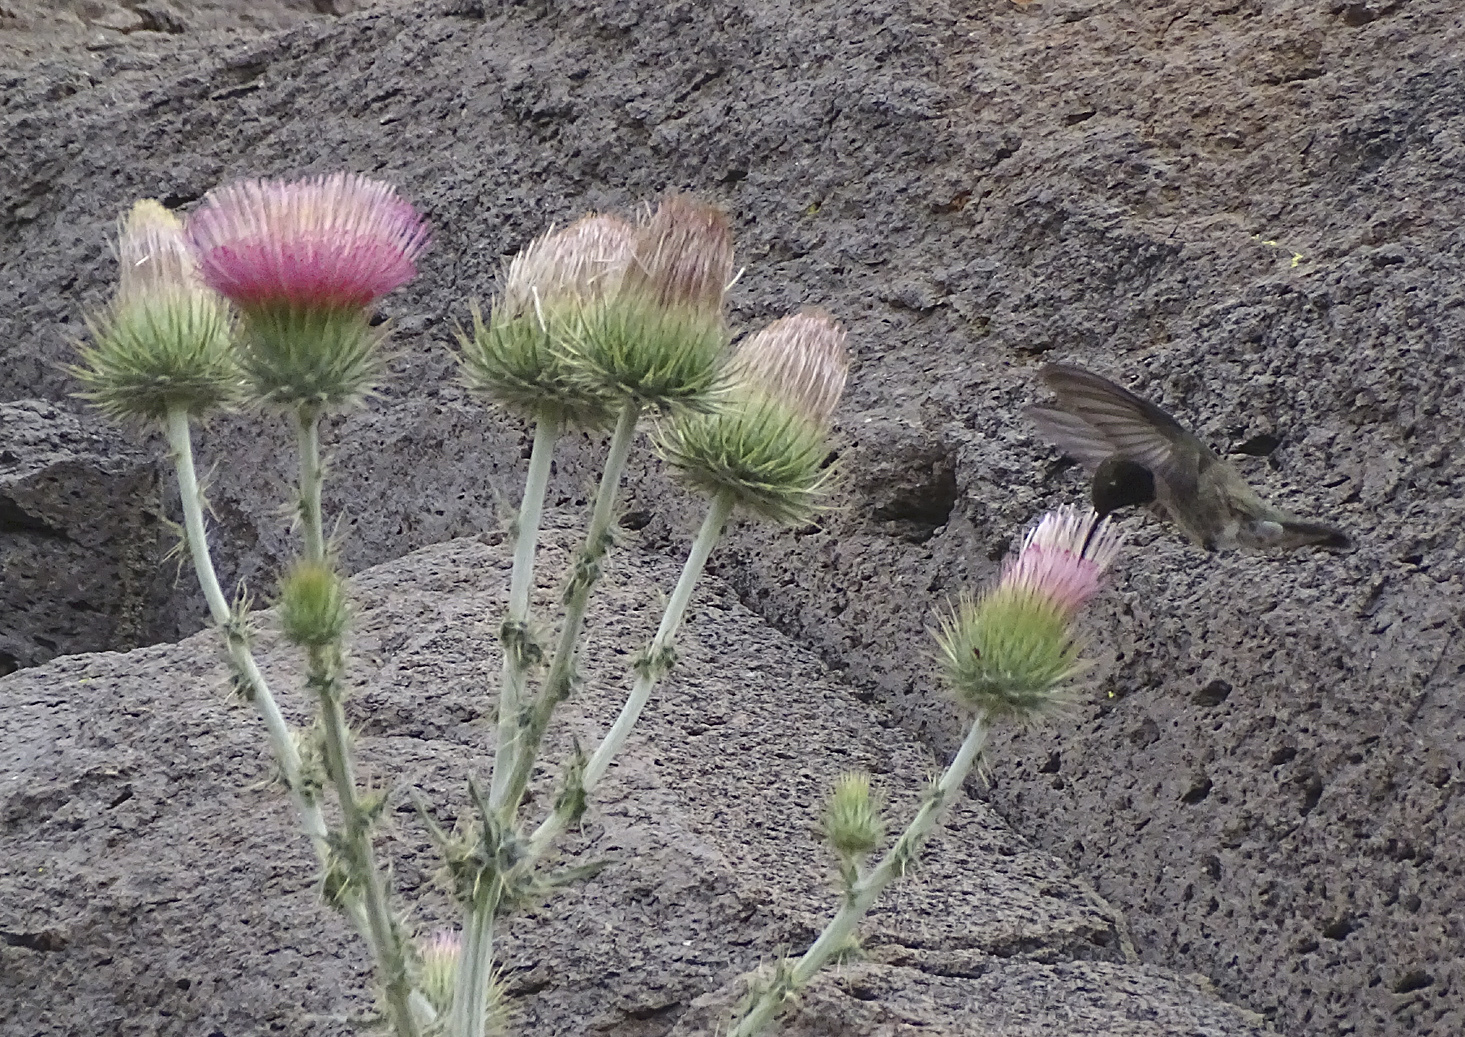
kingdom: Animalia
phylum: Chordata
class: Aves
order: Apodiformes
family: Trochilidae
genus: Archilochus
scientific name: Archilochus alexandri
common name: Black-chinned hummingbird
